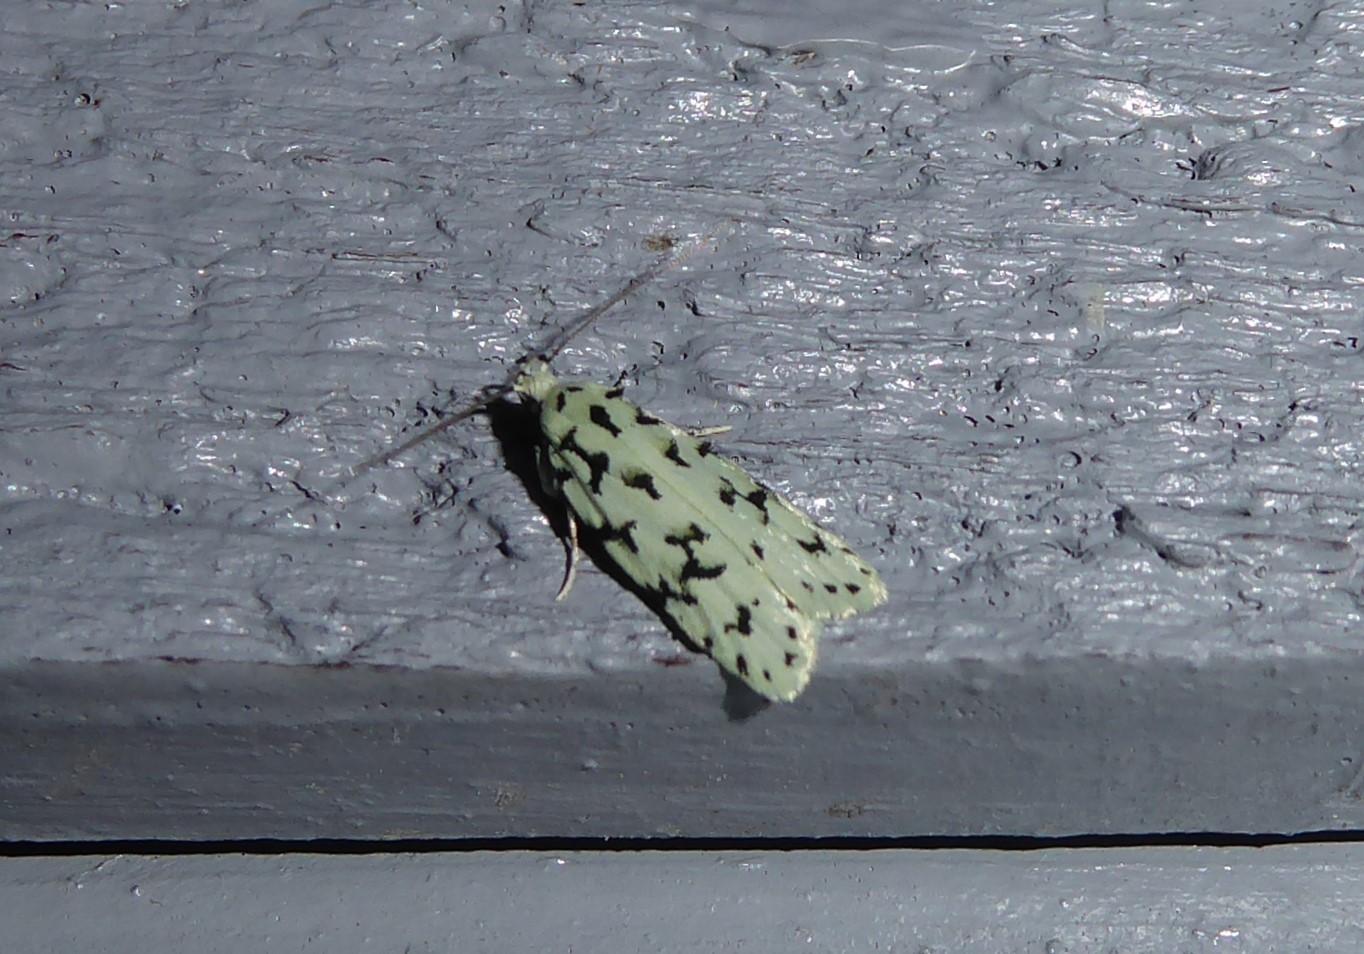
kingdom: Animalia
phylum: Arthropoda
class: Insecta
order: Lepidoptera
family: Oecophoridae
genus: Izatha
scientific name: Izatha huttoni
